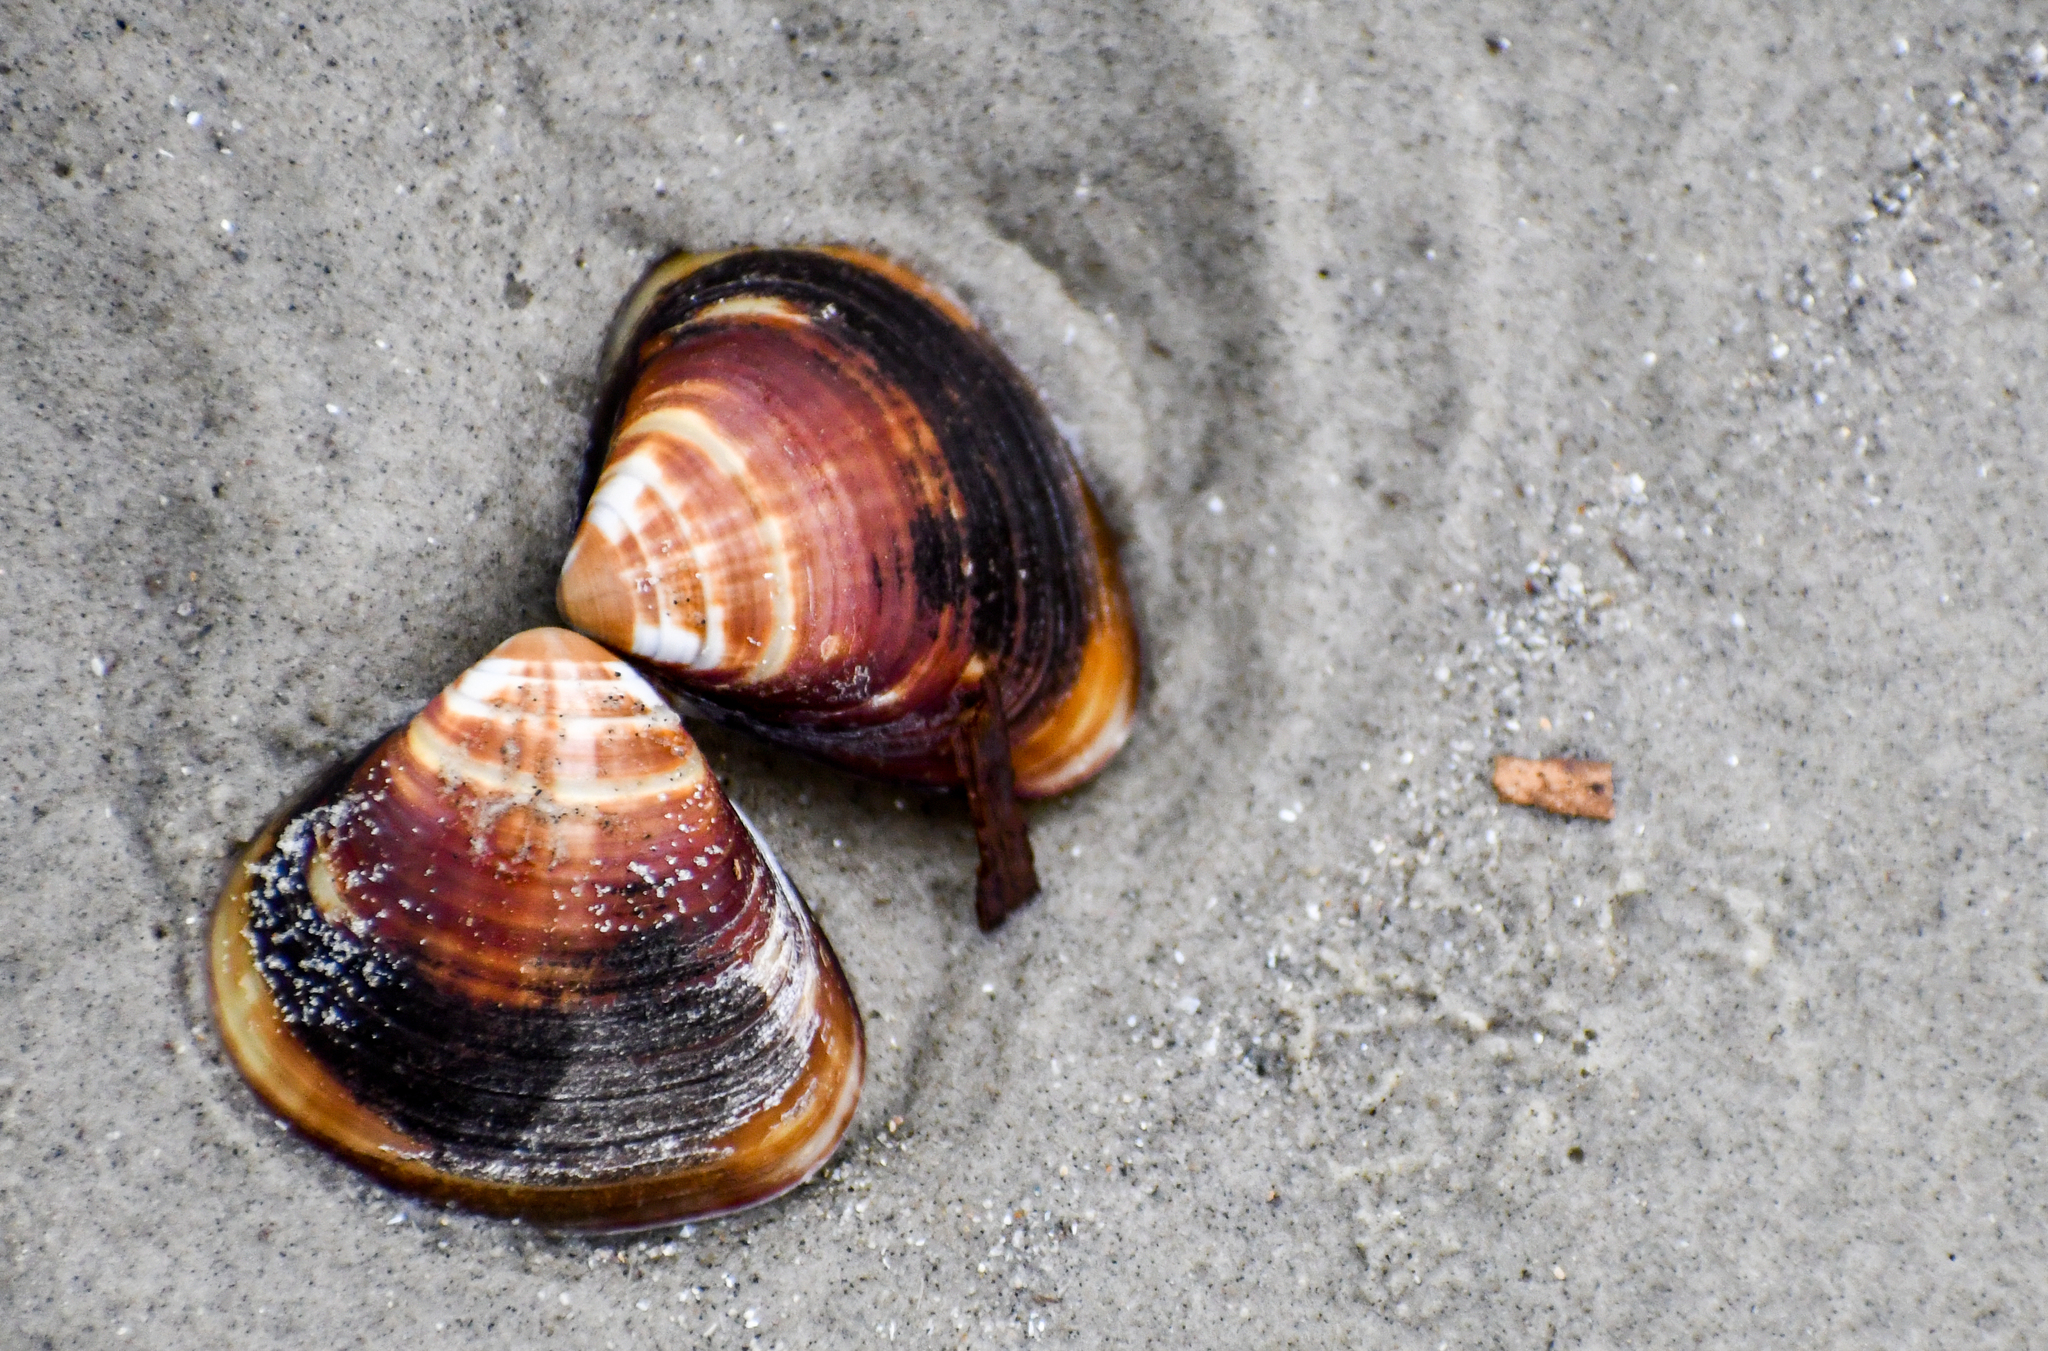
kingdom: Animalia
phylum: Mollusca
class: Bivalvia
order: Venerida
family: Veneridae
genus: Tivela
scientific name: Tivela mactroides
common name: Trigonal tivela
